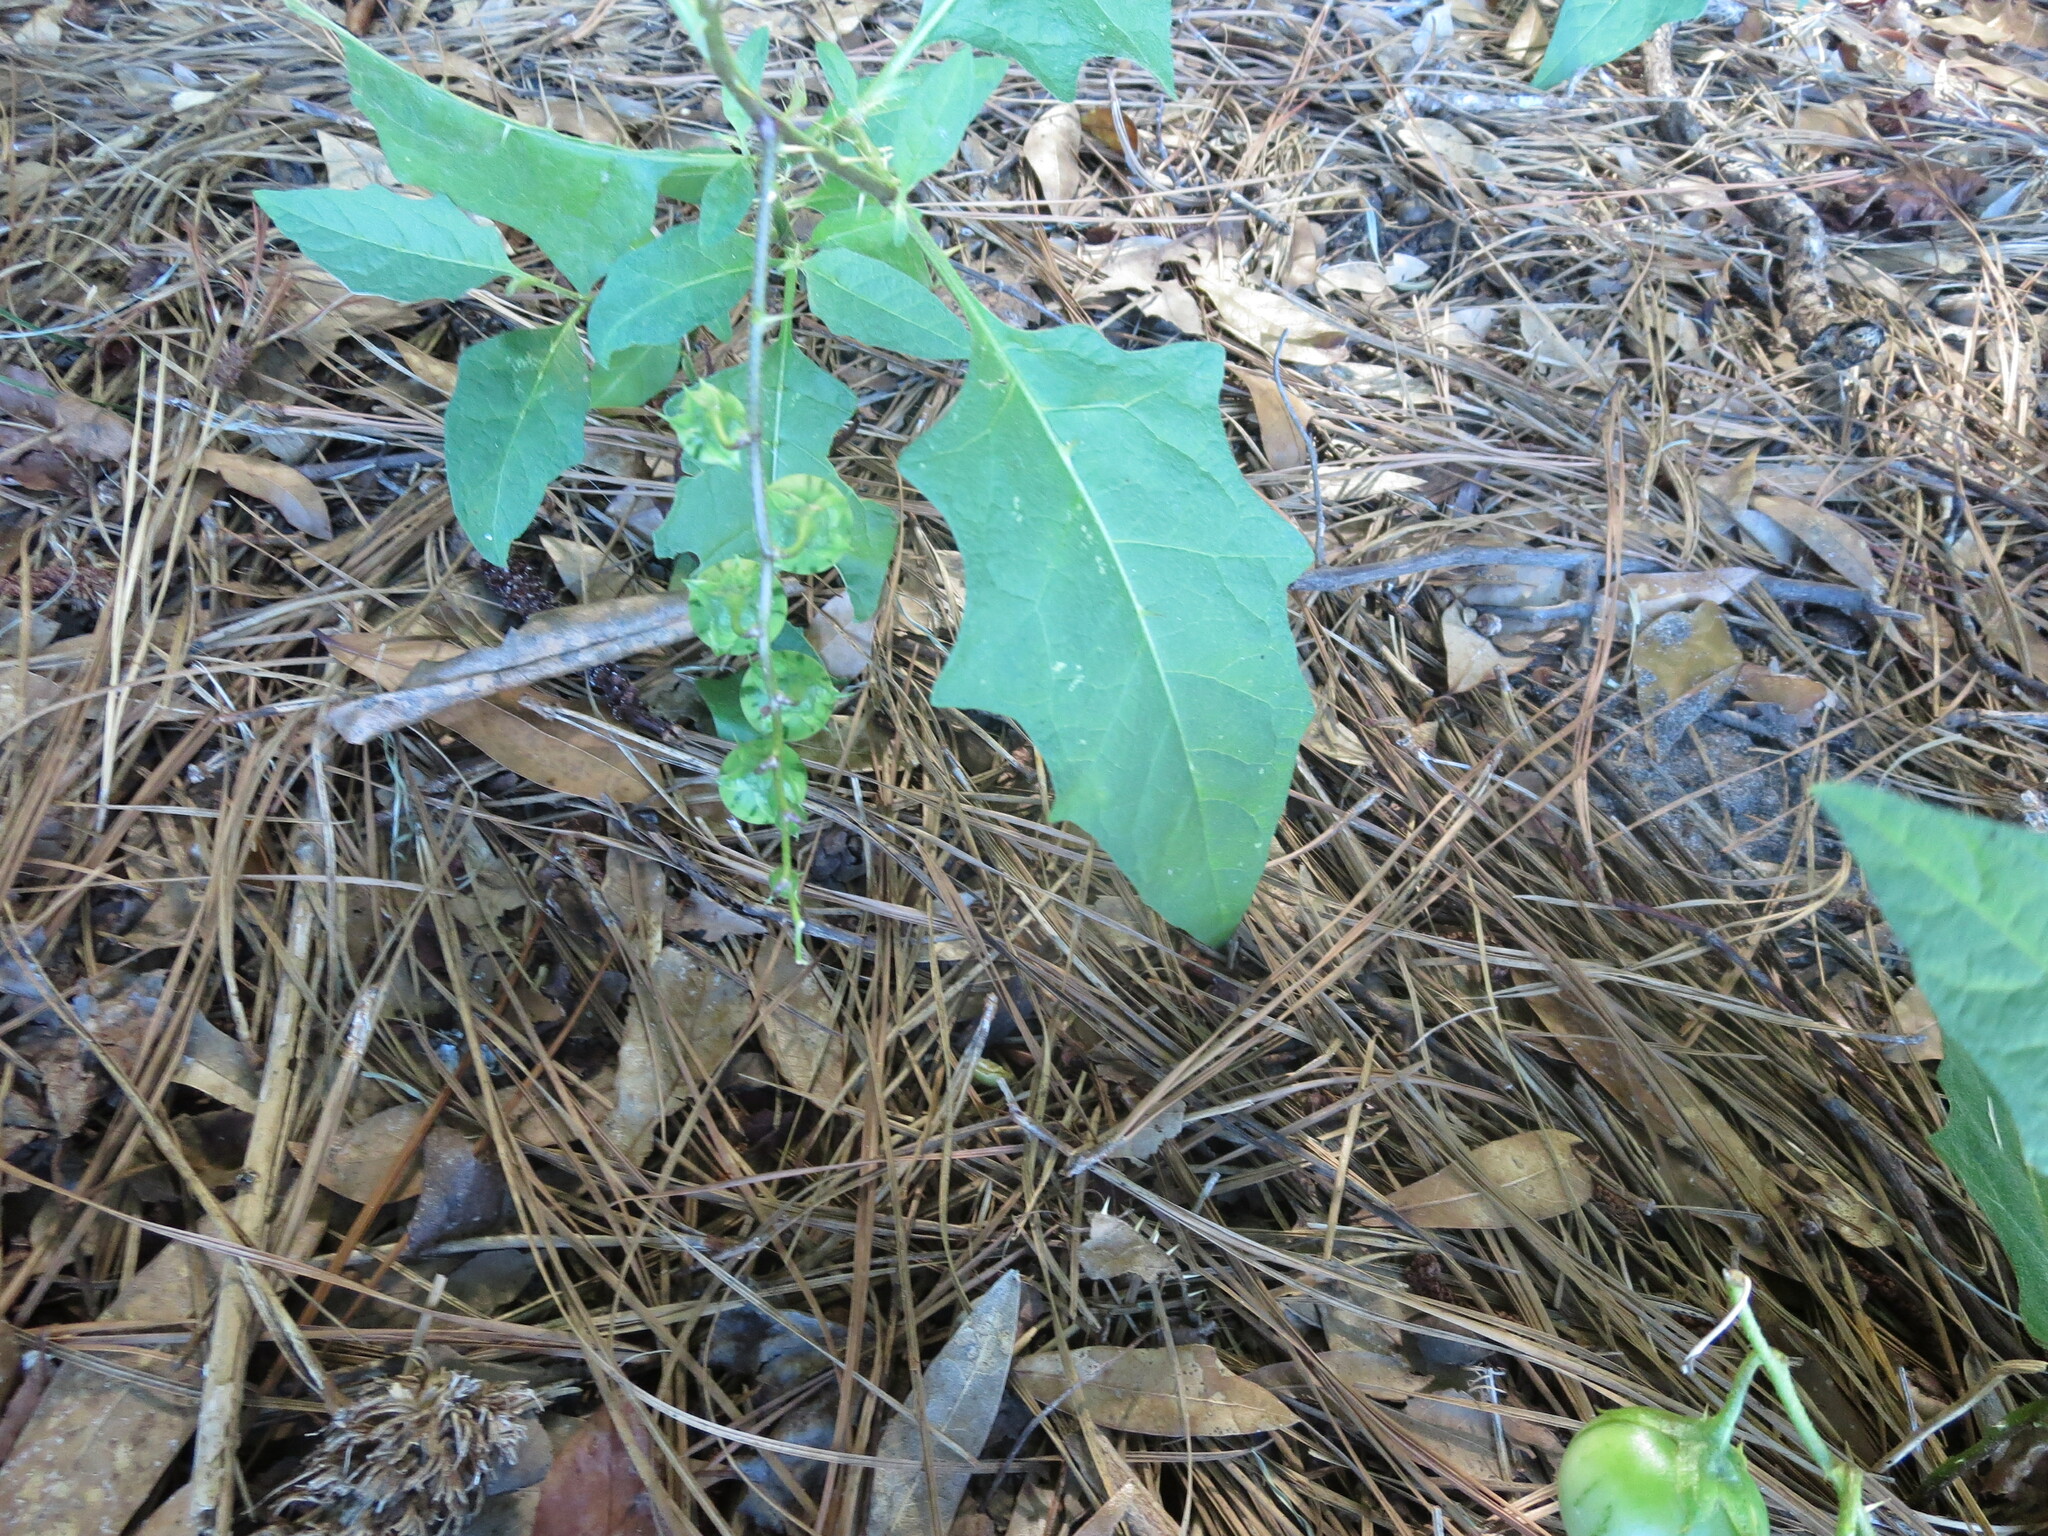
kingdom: Plantae
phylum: Tracheophyta
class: Magnoliopsida
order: Solanales
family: Solanaceae
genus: Solanum
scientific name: Solanum carolinense
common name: Horse-nettle
